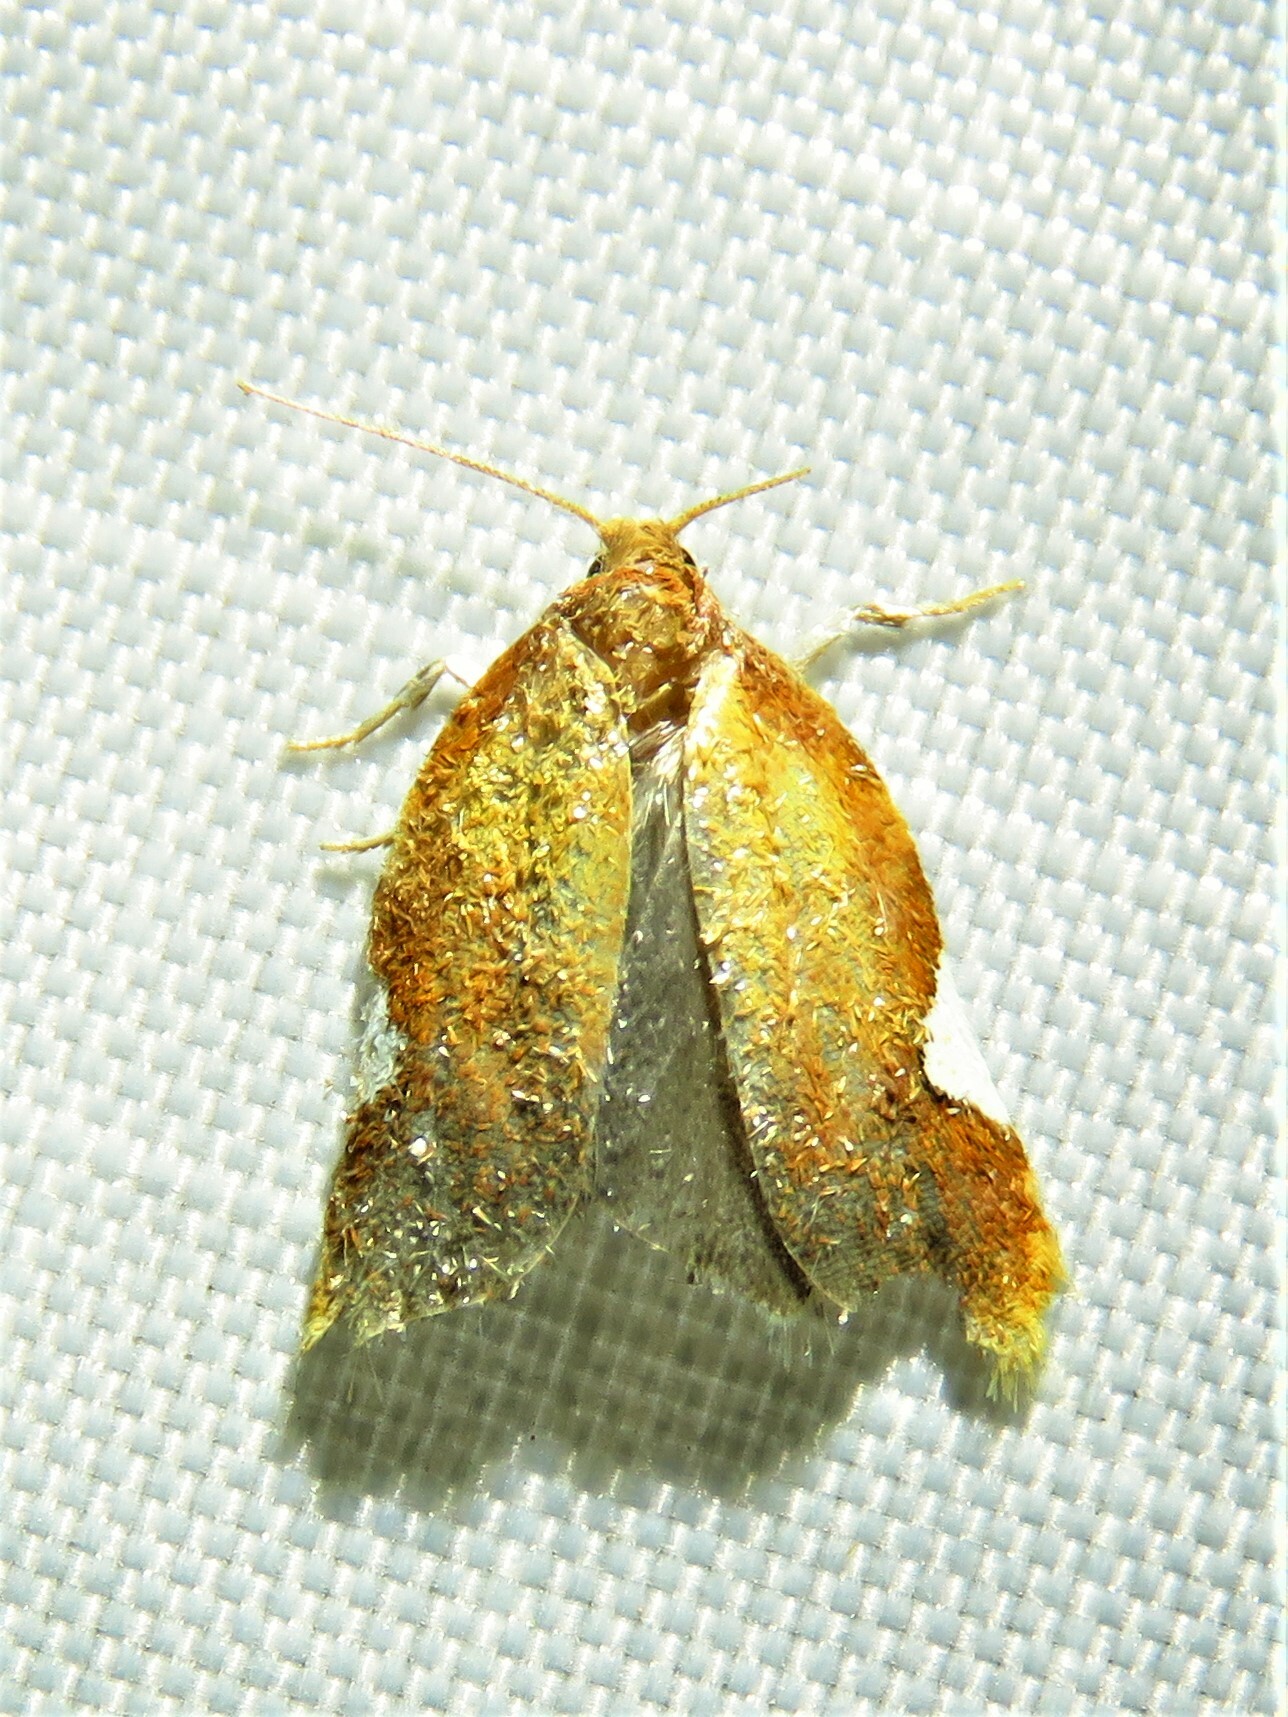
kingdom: Animalia
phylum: Arthropoda
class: Insecta
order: Lepidoptera
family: Tortricidae
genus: Acleris
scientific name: Acleris holmiana
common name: Golden leafroller moth
